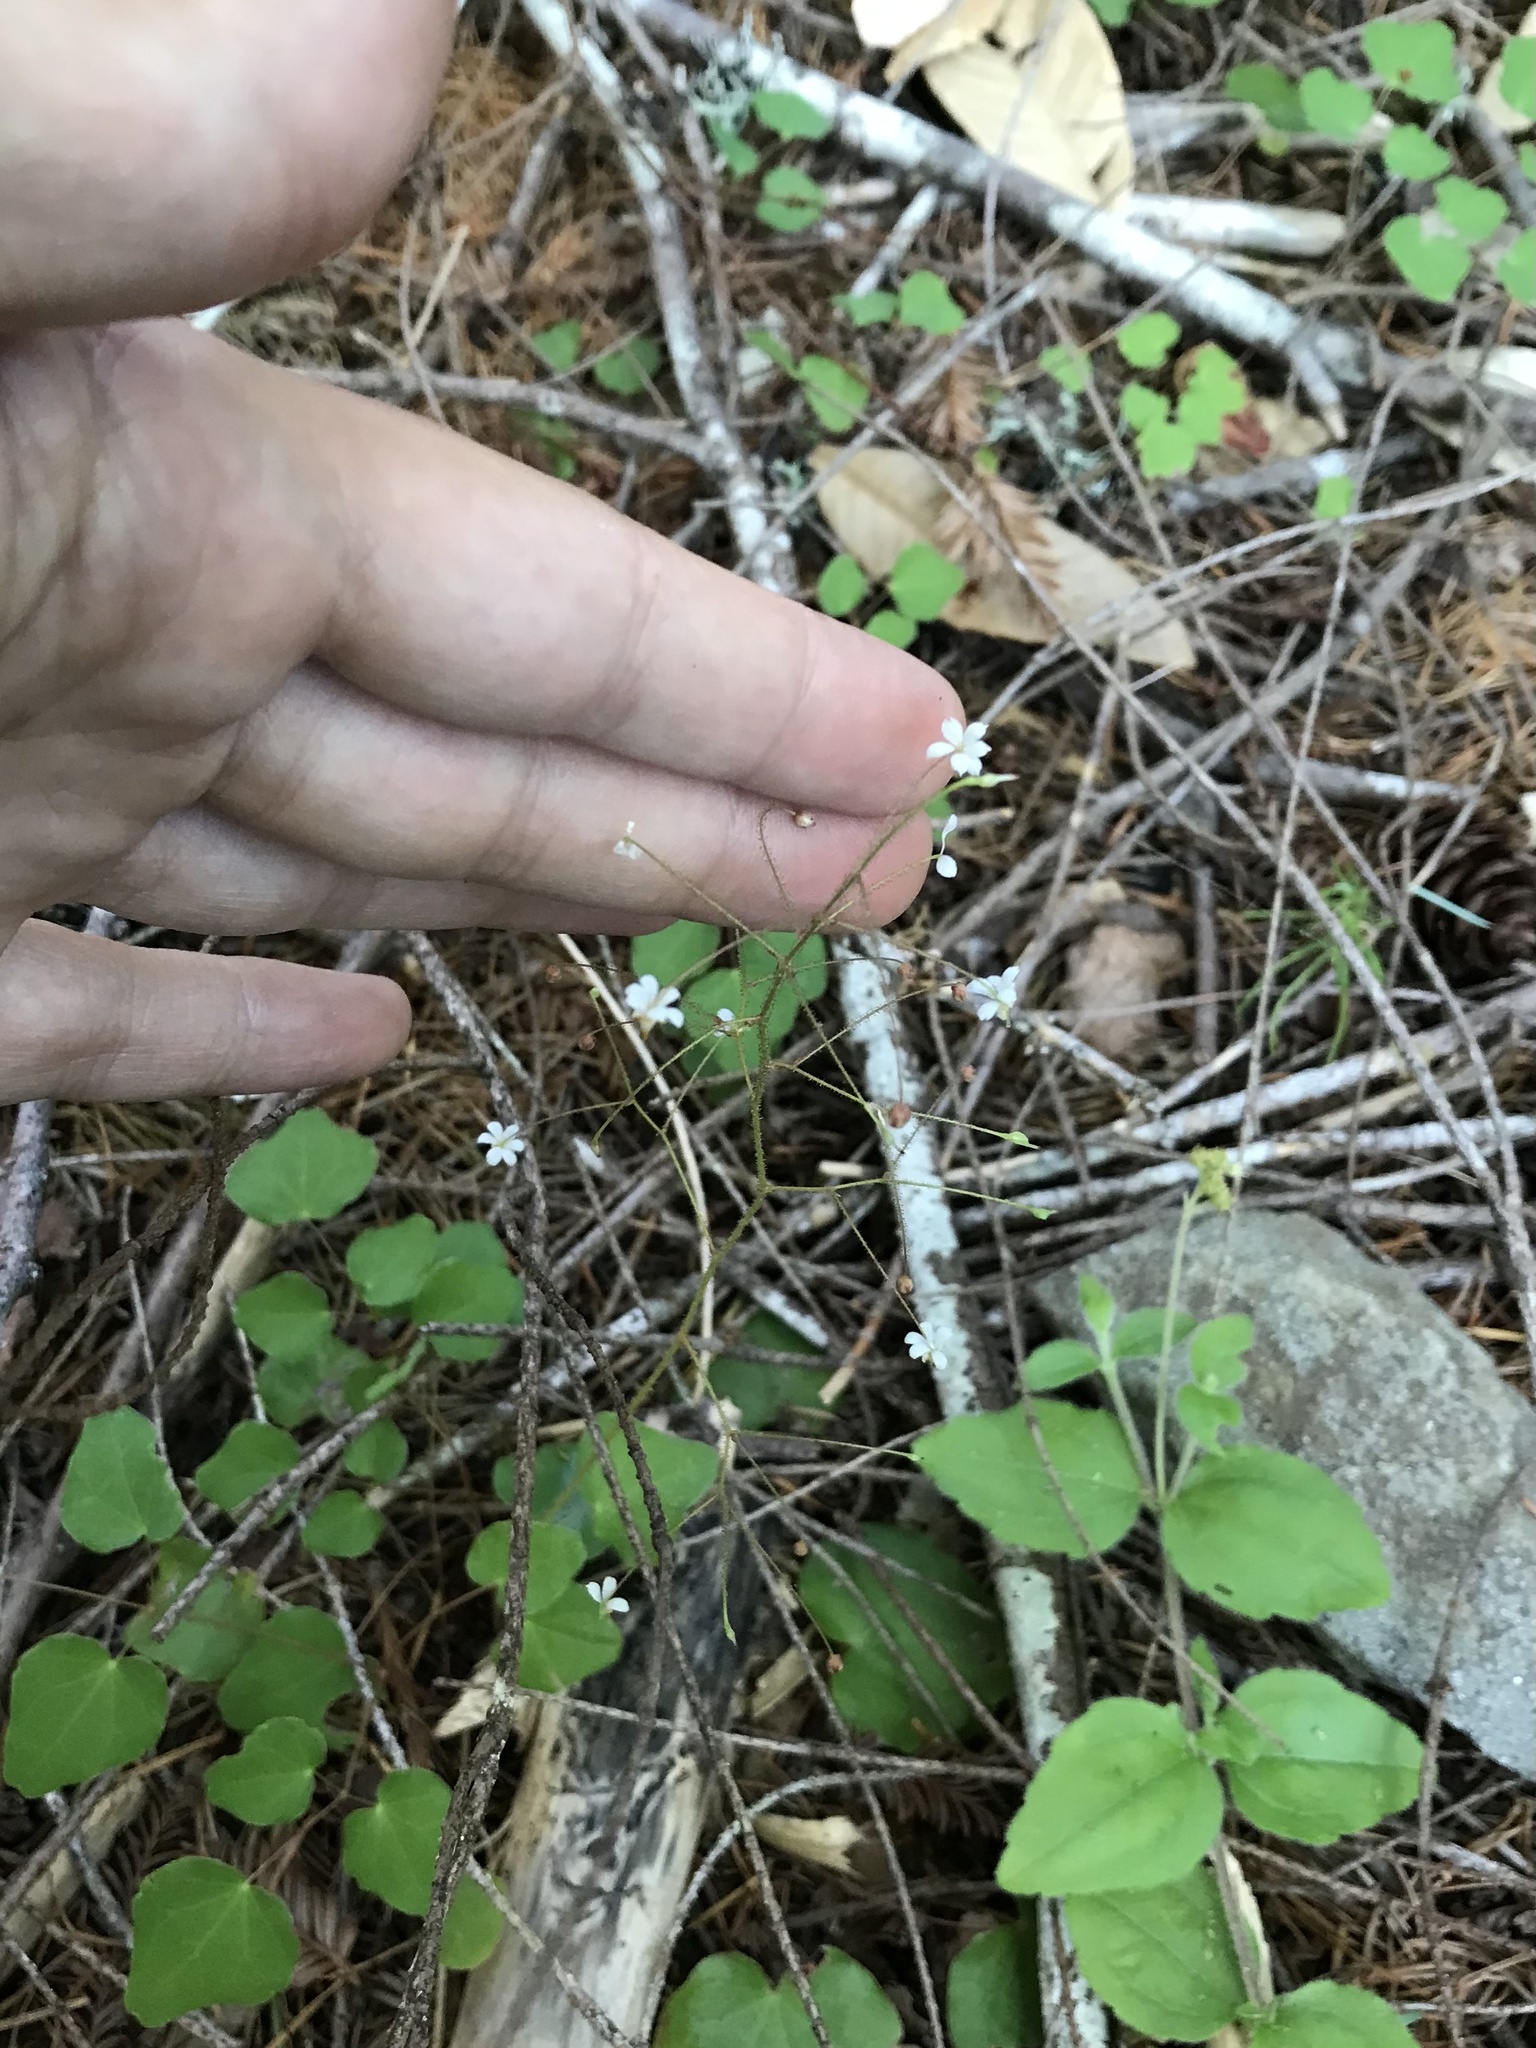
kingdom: Plantae
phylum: Tracheophyta
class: Magnoliopsida
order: Ranunculales
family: Berberidaceae
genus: Vancouveria
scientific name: Vancouveria planipetala
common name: Redwood-ivy
